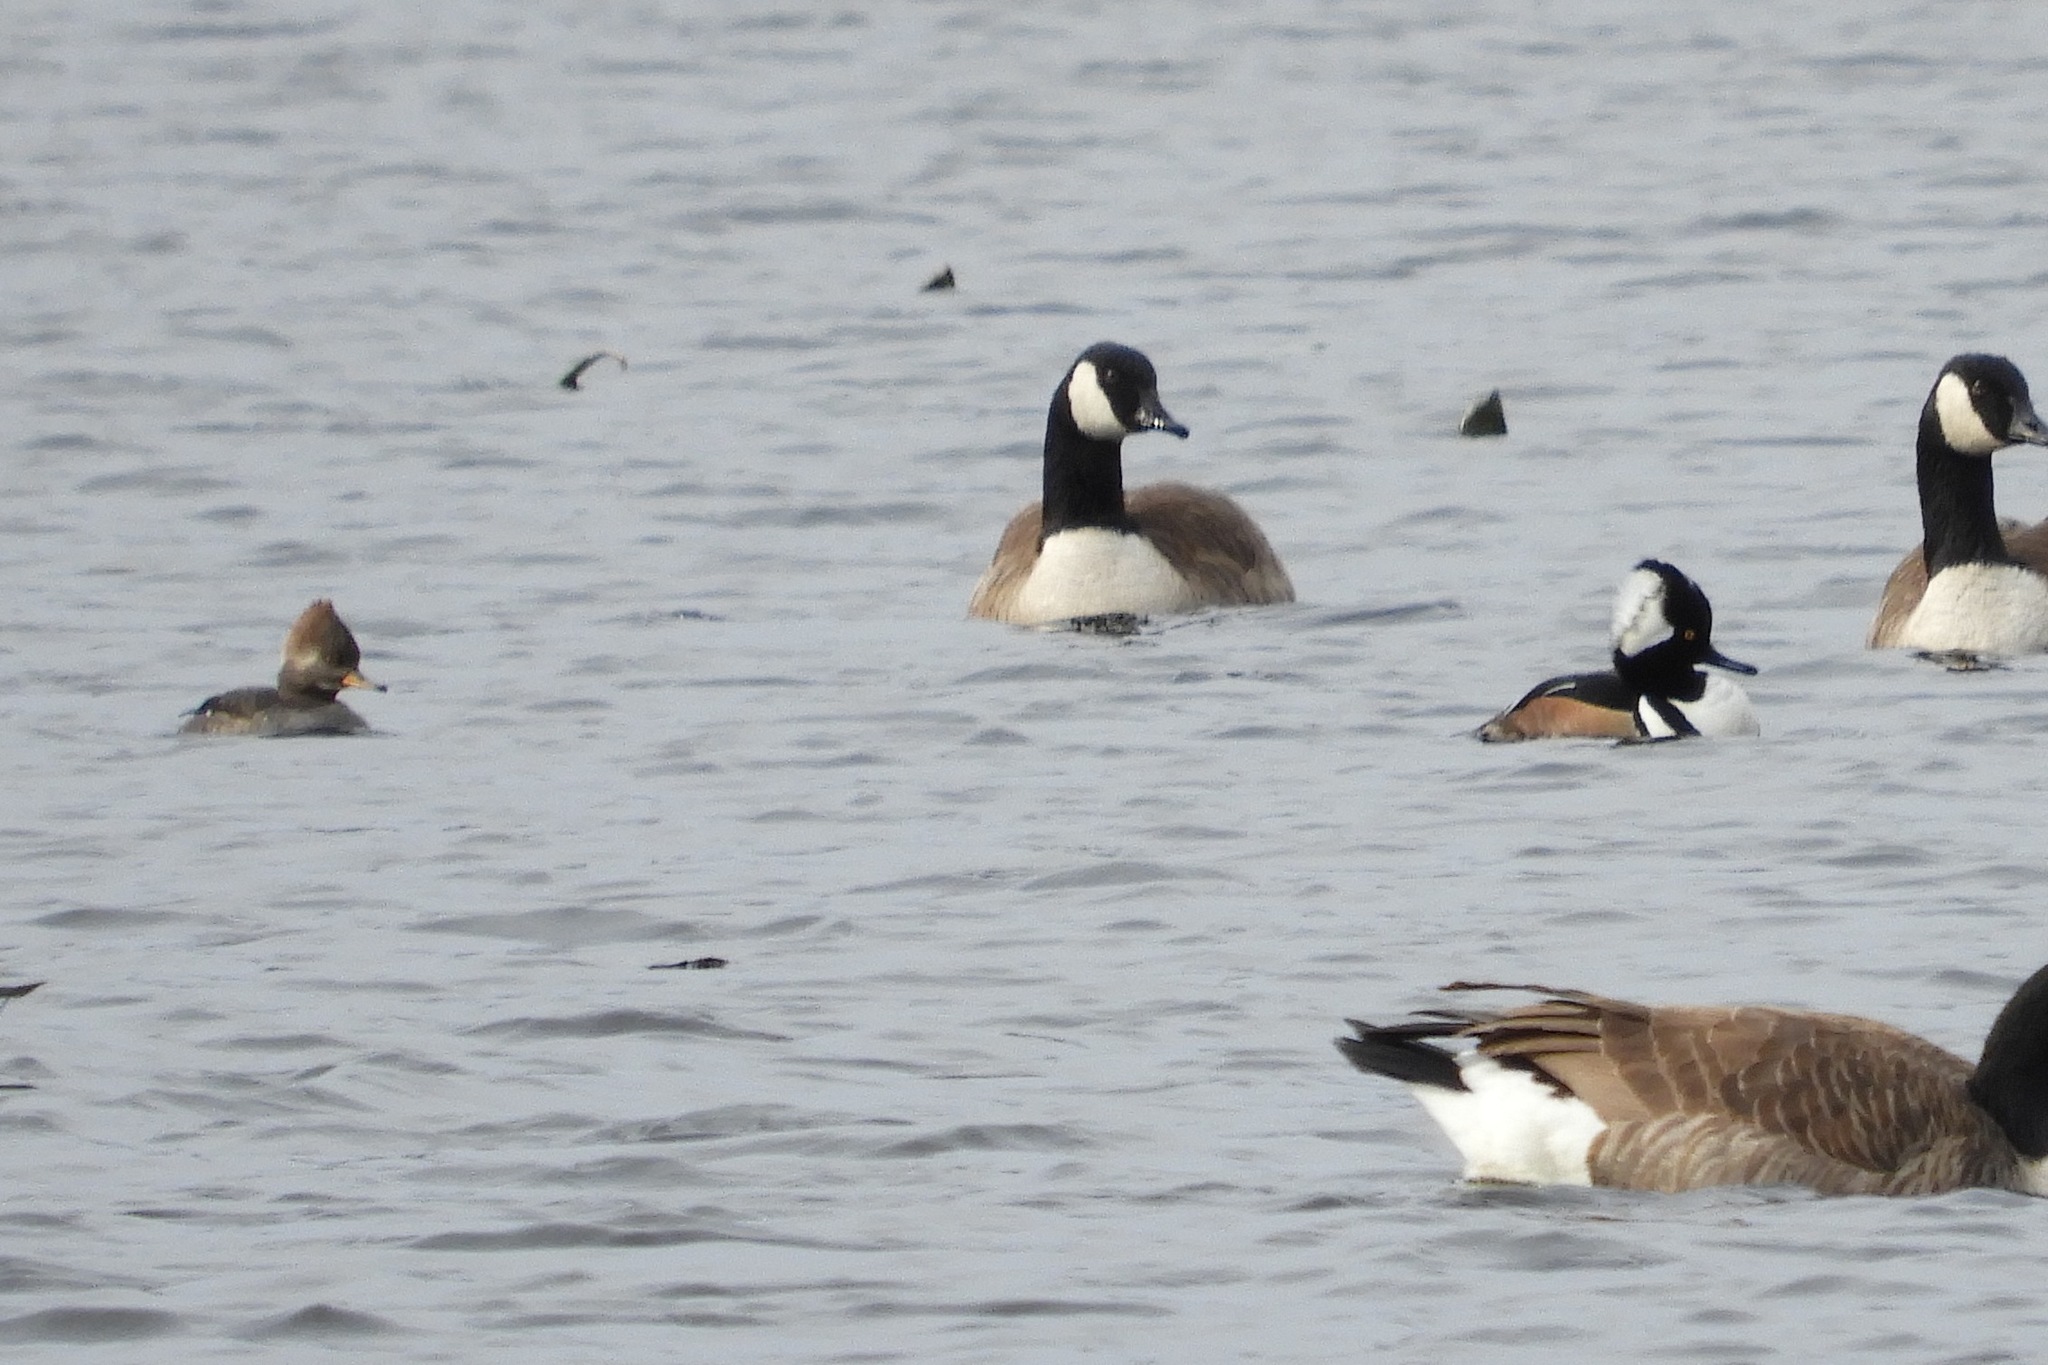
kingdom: Animalia
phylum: Chordata
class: Aves
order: Anseriformes
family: Anatidae
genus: Lophodytes
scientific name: Lophodytes cucullatus
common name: Hooded merganser
